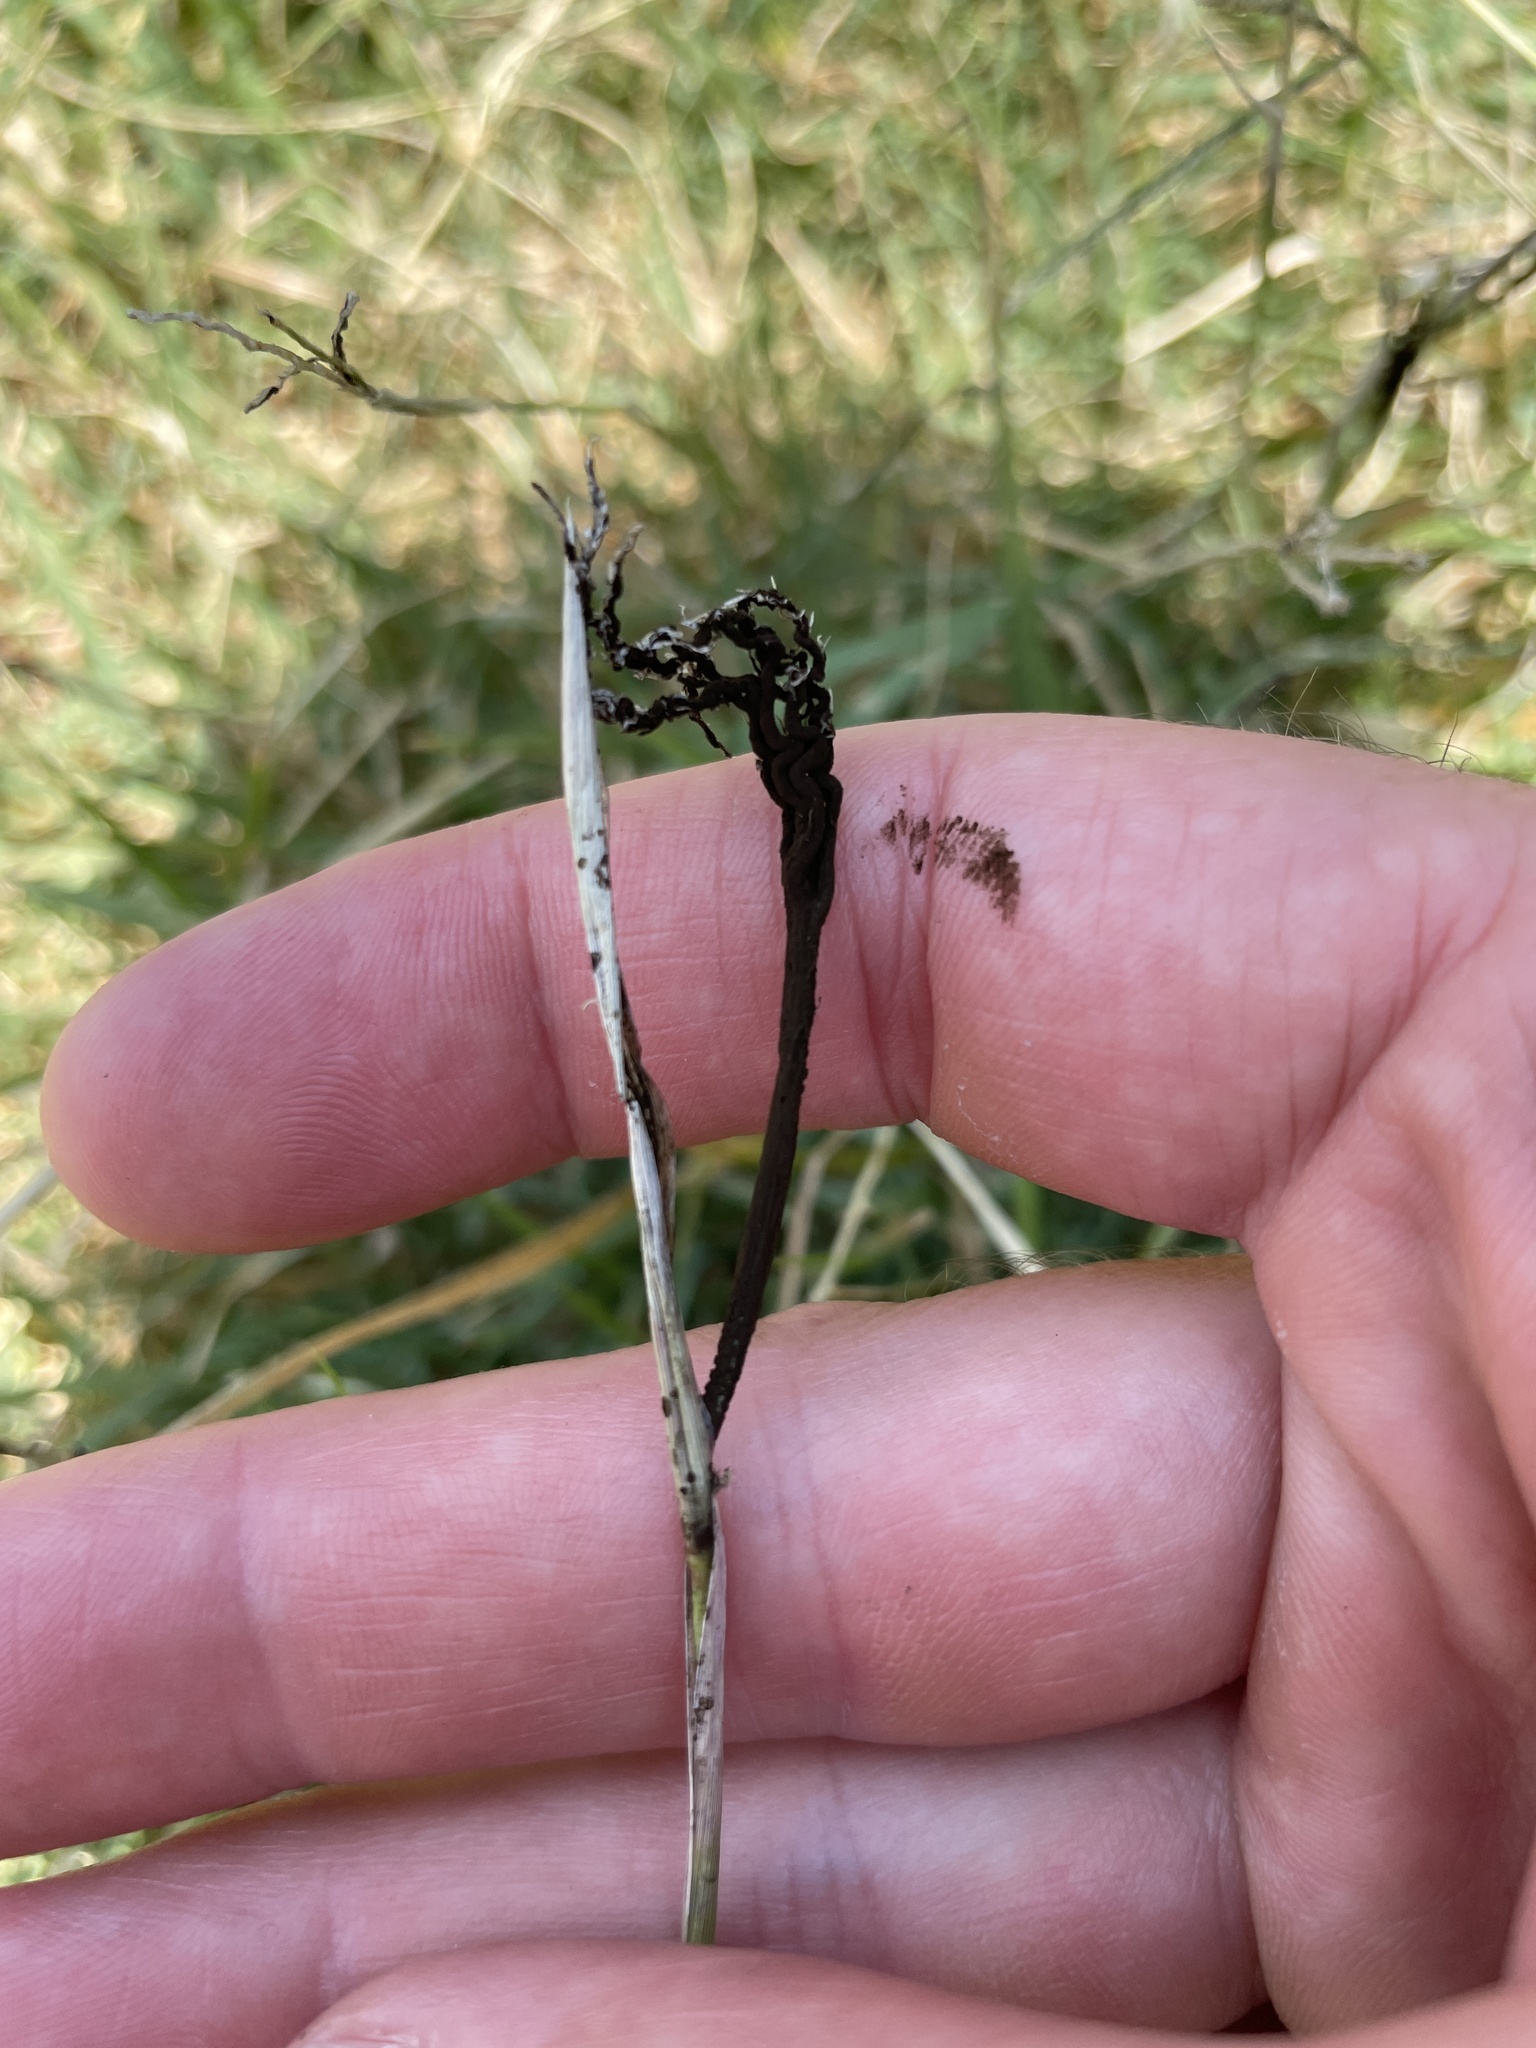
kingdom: Fungi
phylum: Basidiomycota
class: Ustilaginomycetes
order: Ustilaginales
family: Ustilaginaceae
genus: Ustilago
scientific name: Ustilago cynodontis
